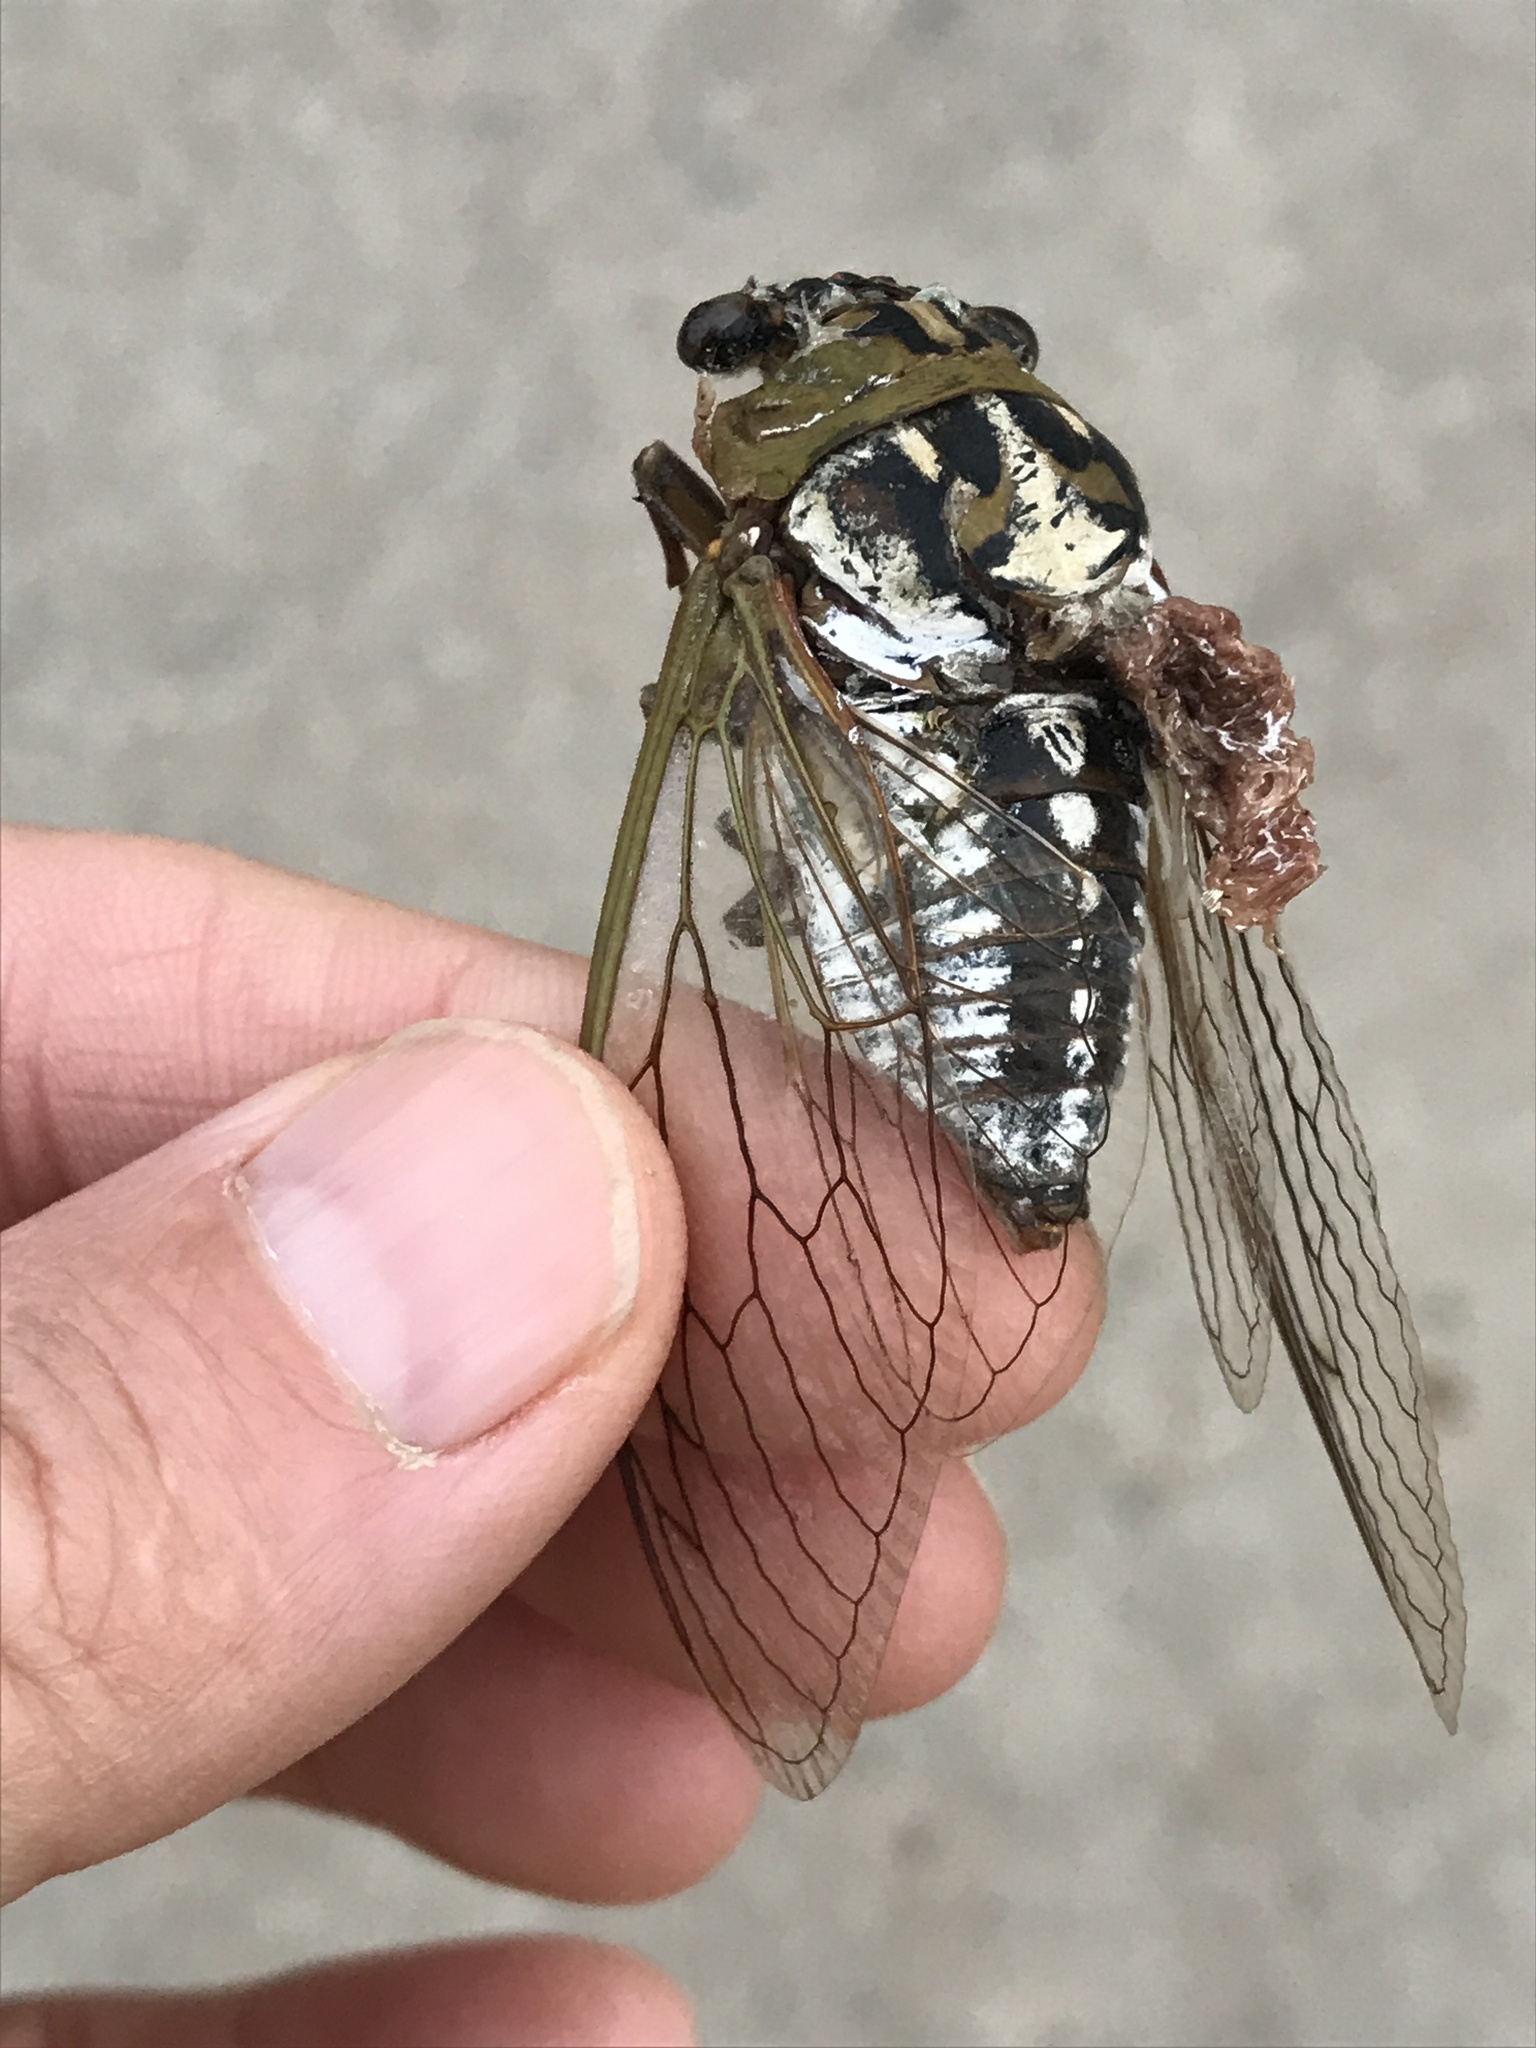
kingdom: Animalia
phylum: Arthropoda
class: Insecta
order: Hemiptera
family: Cicadidae
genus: Megatibicen
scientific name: Megatibicen dealbatus
